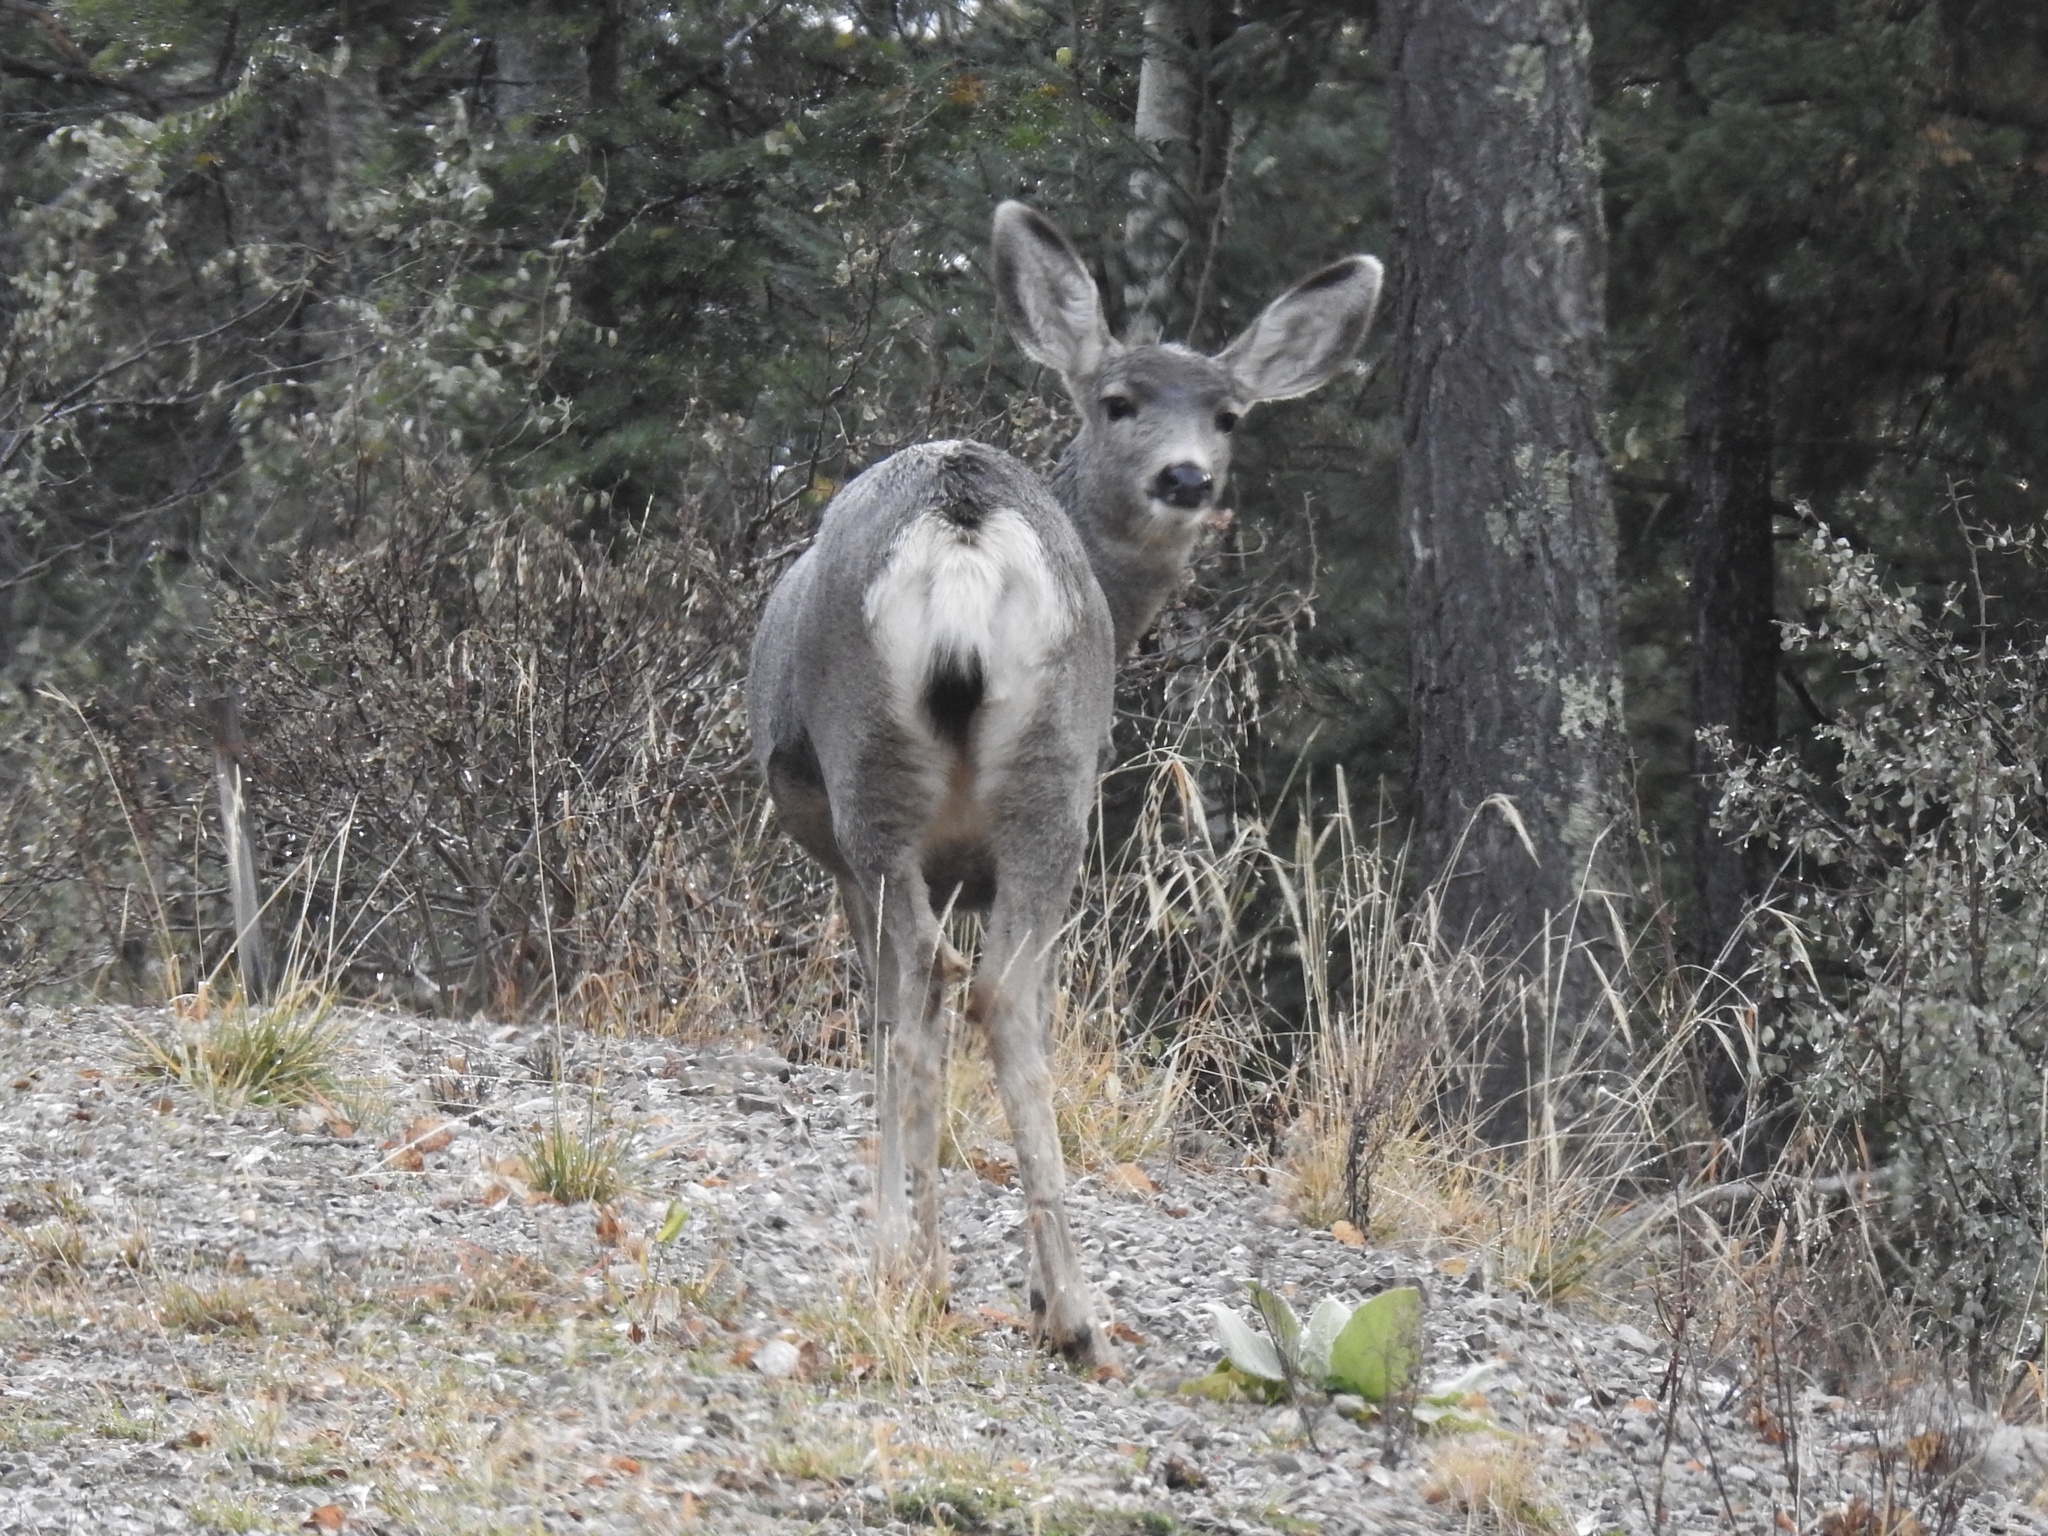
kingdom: Animalia
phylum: Chordata
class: Mammalia
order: Artiodactyla
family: Cervidae
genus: Odocoileus
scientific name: Odocoileus hemionus
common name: Mule deer
